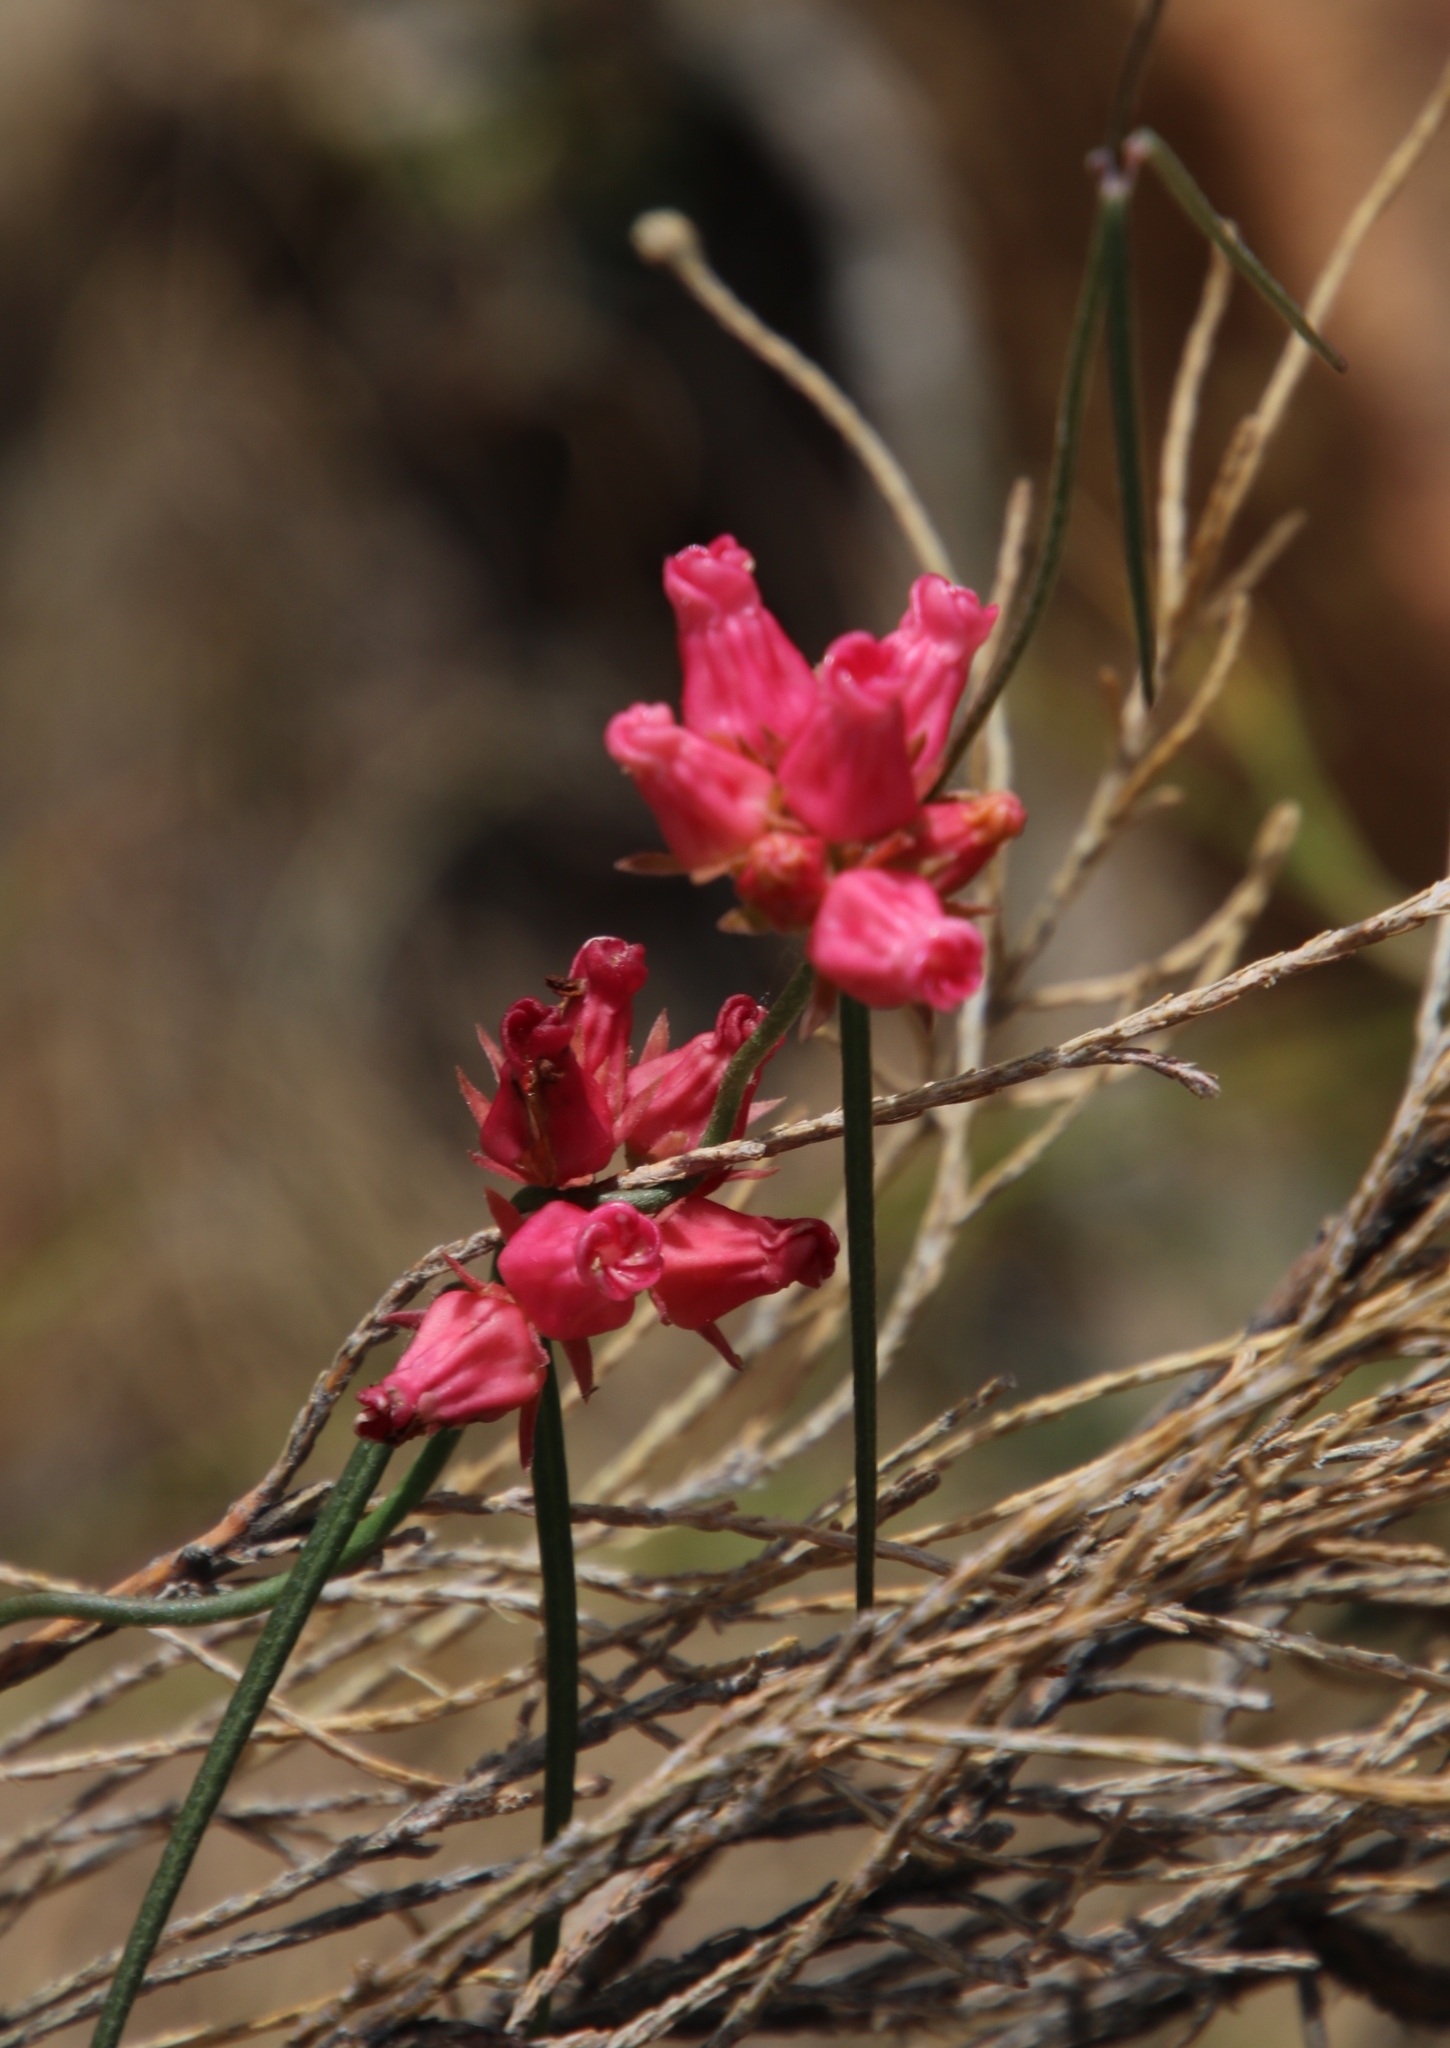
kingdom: Plantae
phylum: Tracheophyta
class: Magnoliopsida
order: Gentianales
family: Apocynaceae
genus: Microloma
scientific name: Microloma tenuifolium
